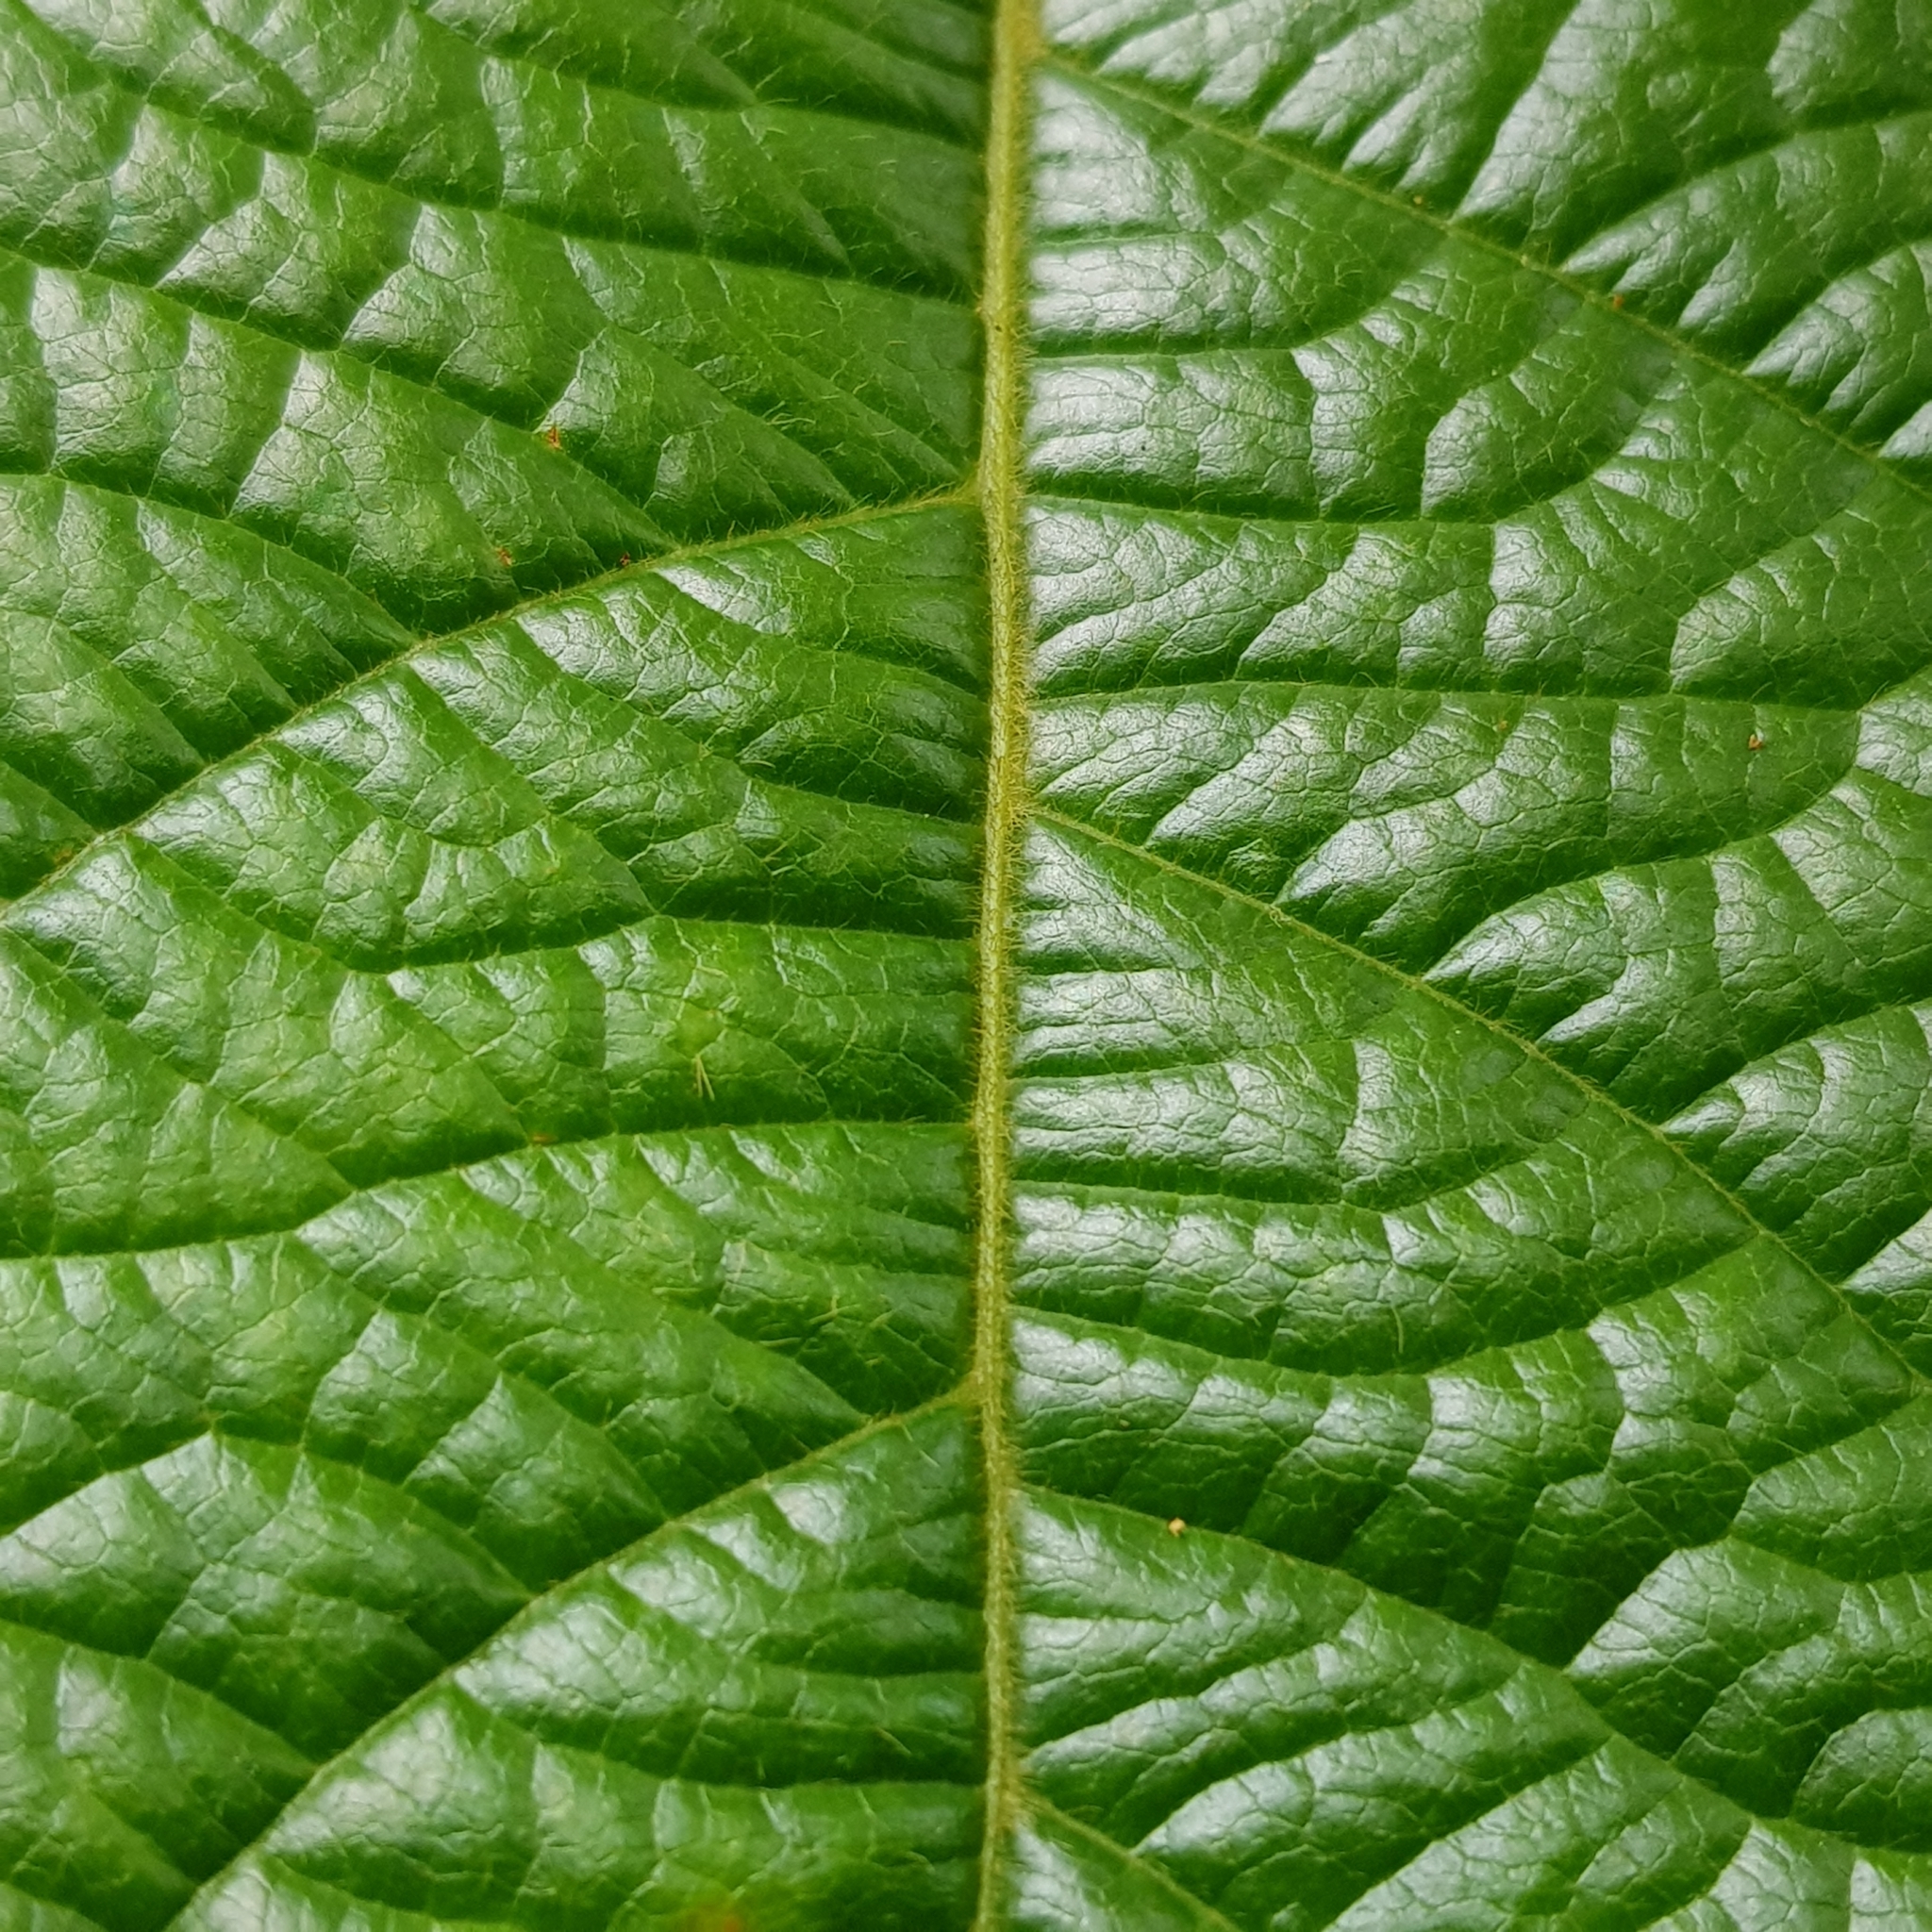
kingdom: Plantae
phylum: Tracheophyta
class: Magnoliopsida
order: Malpighiales
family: Phyllanthaceae
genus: Baccaurea
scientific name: Baccaurea polyneura
